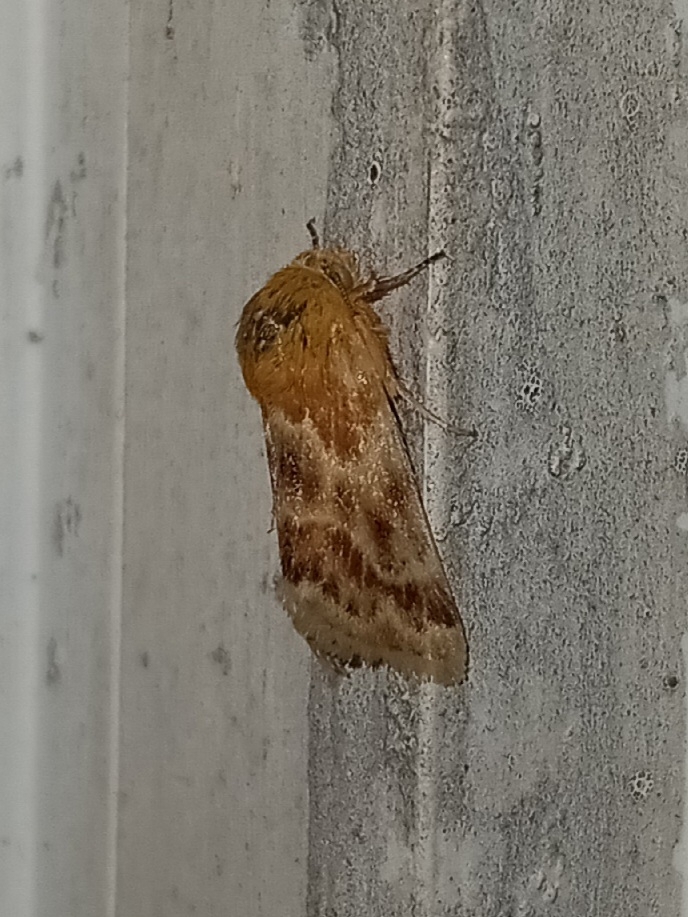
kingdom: Animalia
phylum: Arthropoda
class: Insecta
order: Lepidoptera
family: Noctuidae
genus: Schinia
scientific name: Schinia siren
